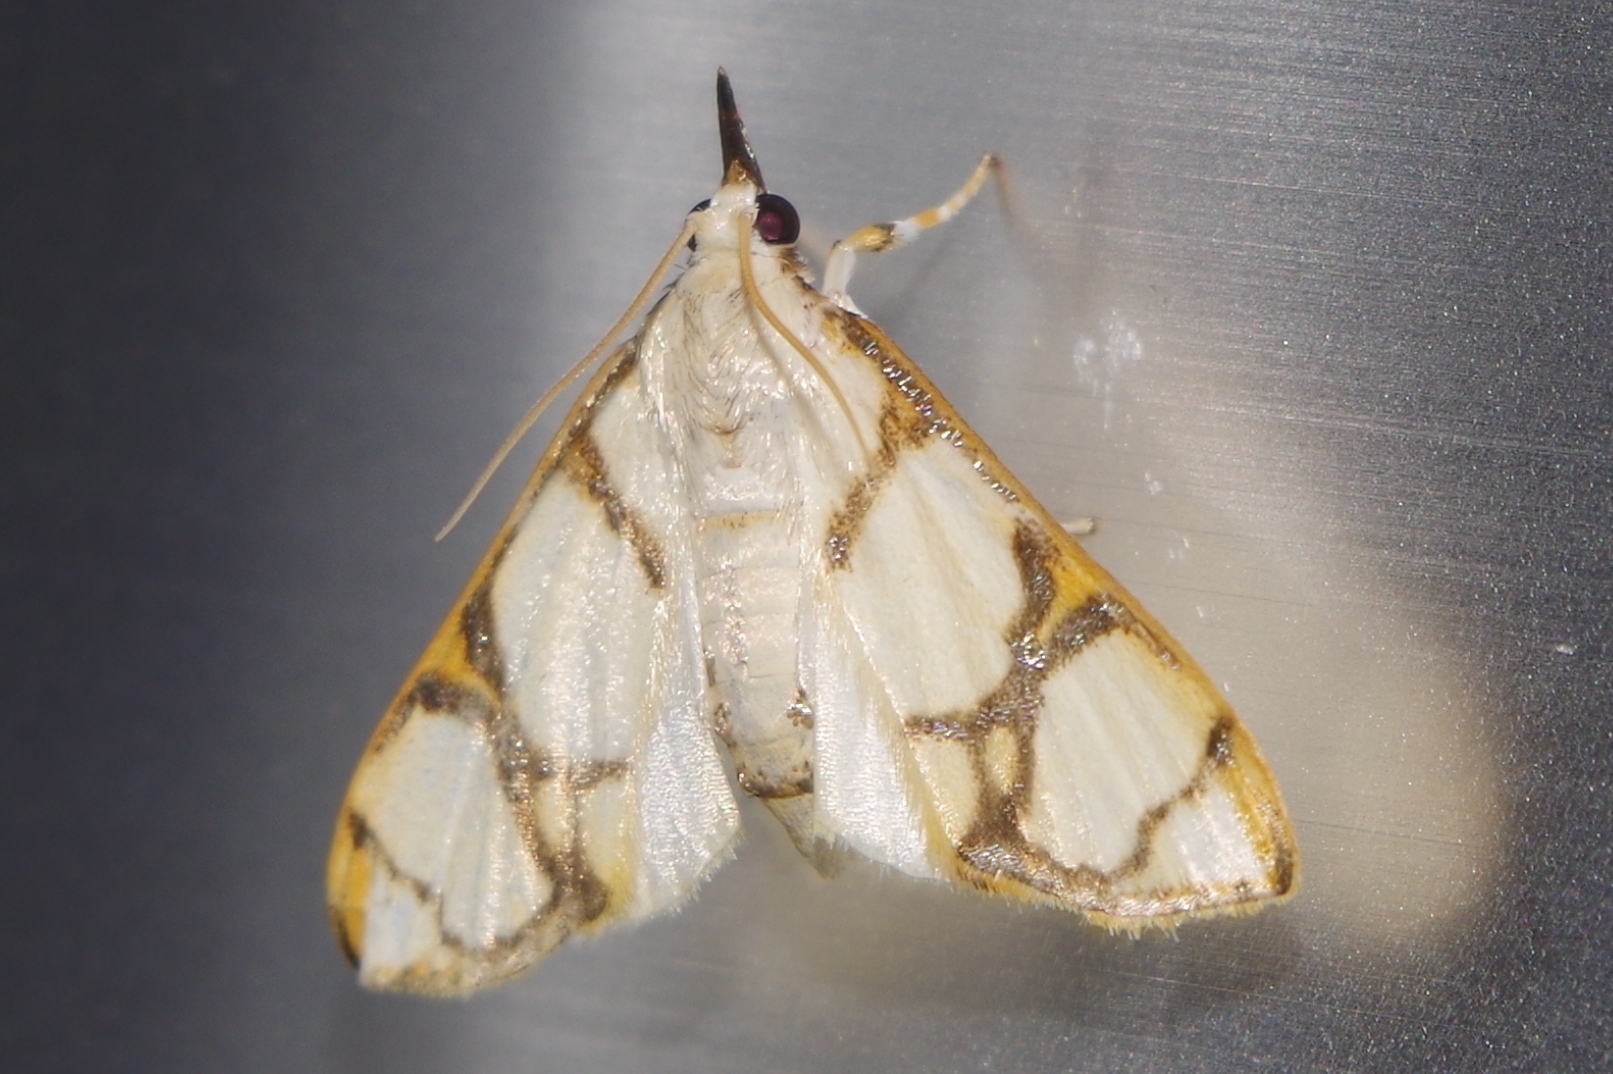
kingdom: Animalia
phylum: Arthropoda
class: Insecta
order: Lepidoptera
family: Crambidae
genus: Cirrhochrista
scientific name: Cirrhochrista kosemponialis
